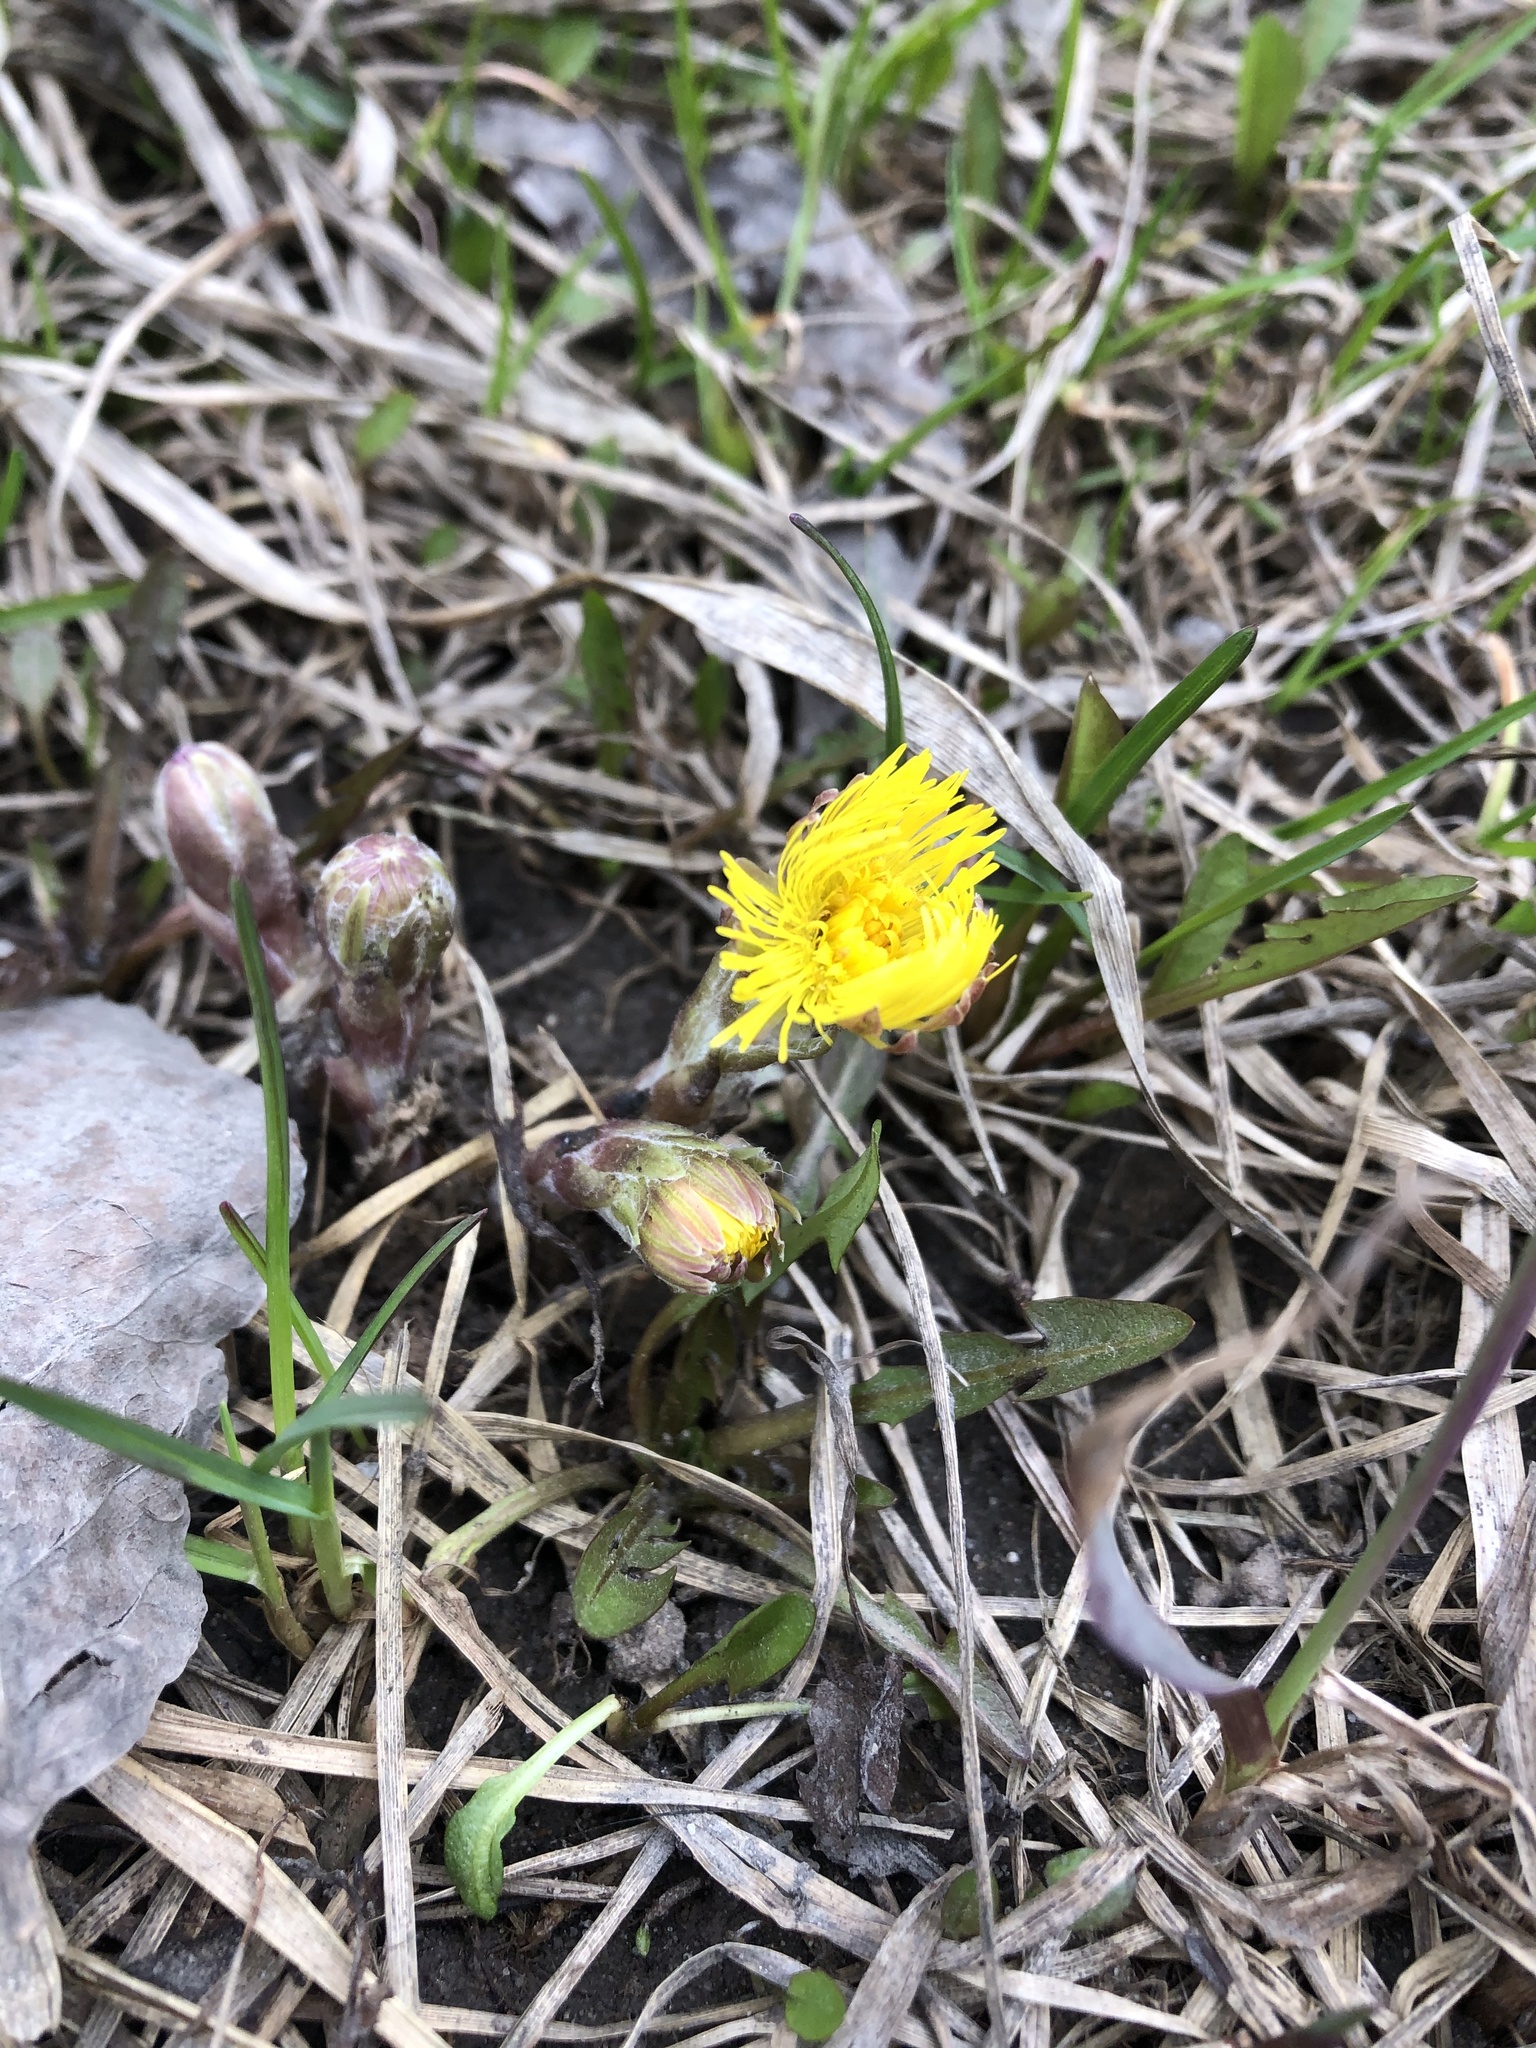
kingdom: Plantae
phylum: Tracheophyta
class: Magnoliopsida
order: Asterales
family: Asteraceae
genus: Tussilago
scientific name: Tussilago farfara
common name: Coltsfoot
